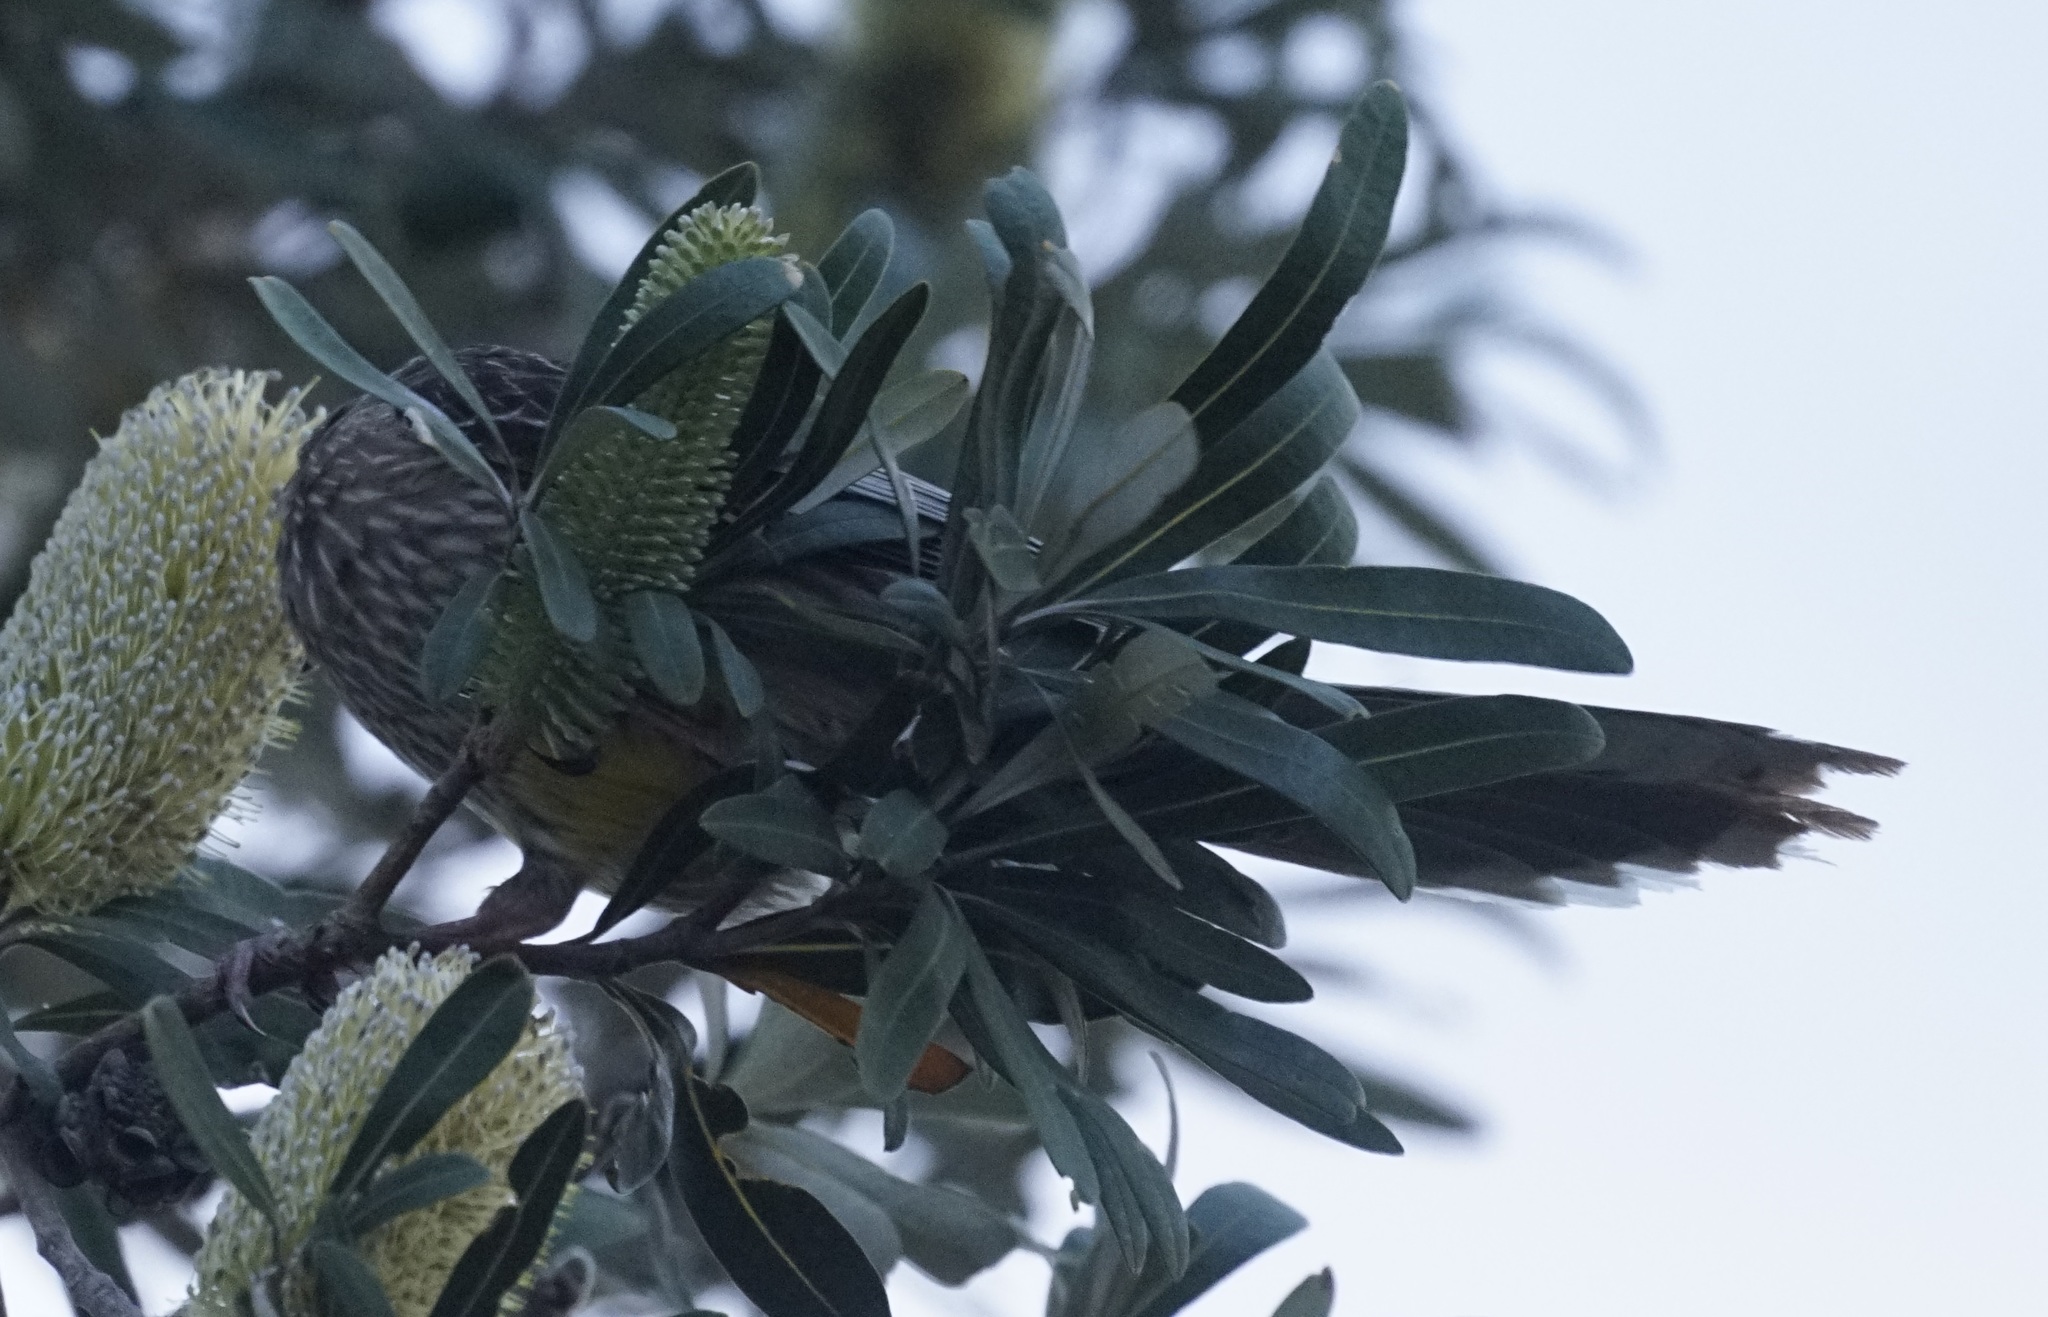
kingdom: Animalia
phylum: Chordata
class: Aves
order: Passeriformes
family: Meliphagidae
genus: Anthochaera
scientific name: Anthochaera carunculata
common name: Red wattlebird
